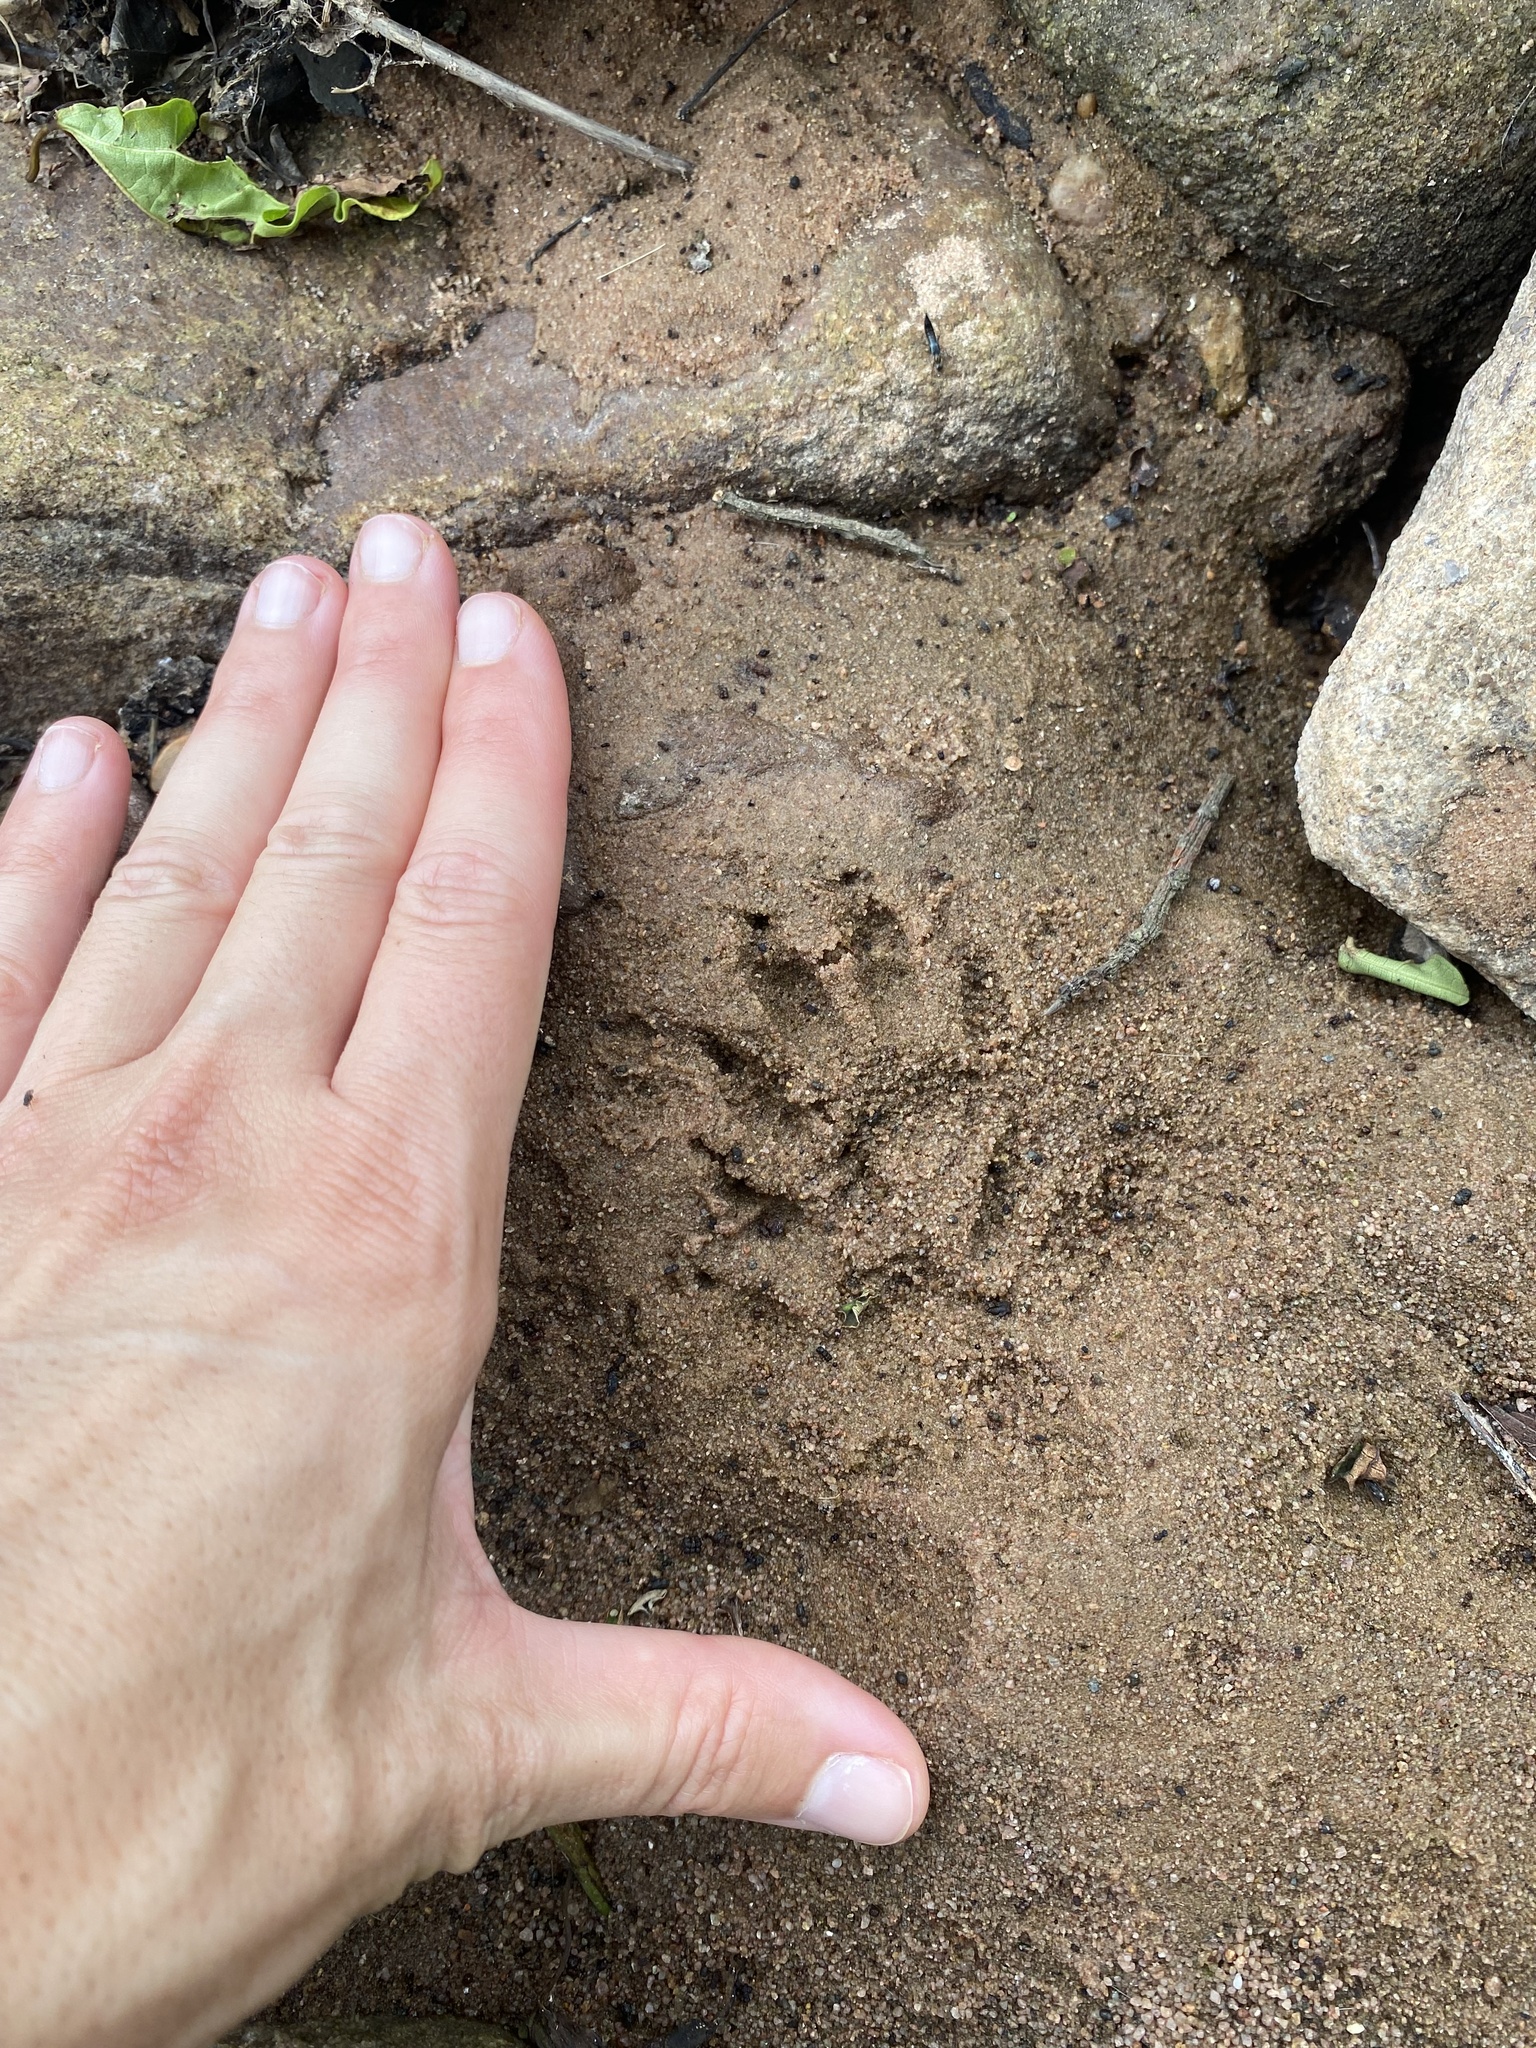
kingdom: Animalia
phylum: Chordata
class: Mammalia
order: Carnivora
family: Herpestidae
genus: Atilax
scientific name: Atilax paludinosus
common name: Marsh mongoose
